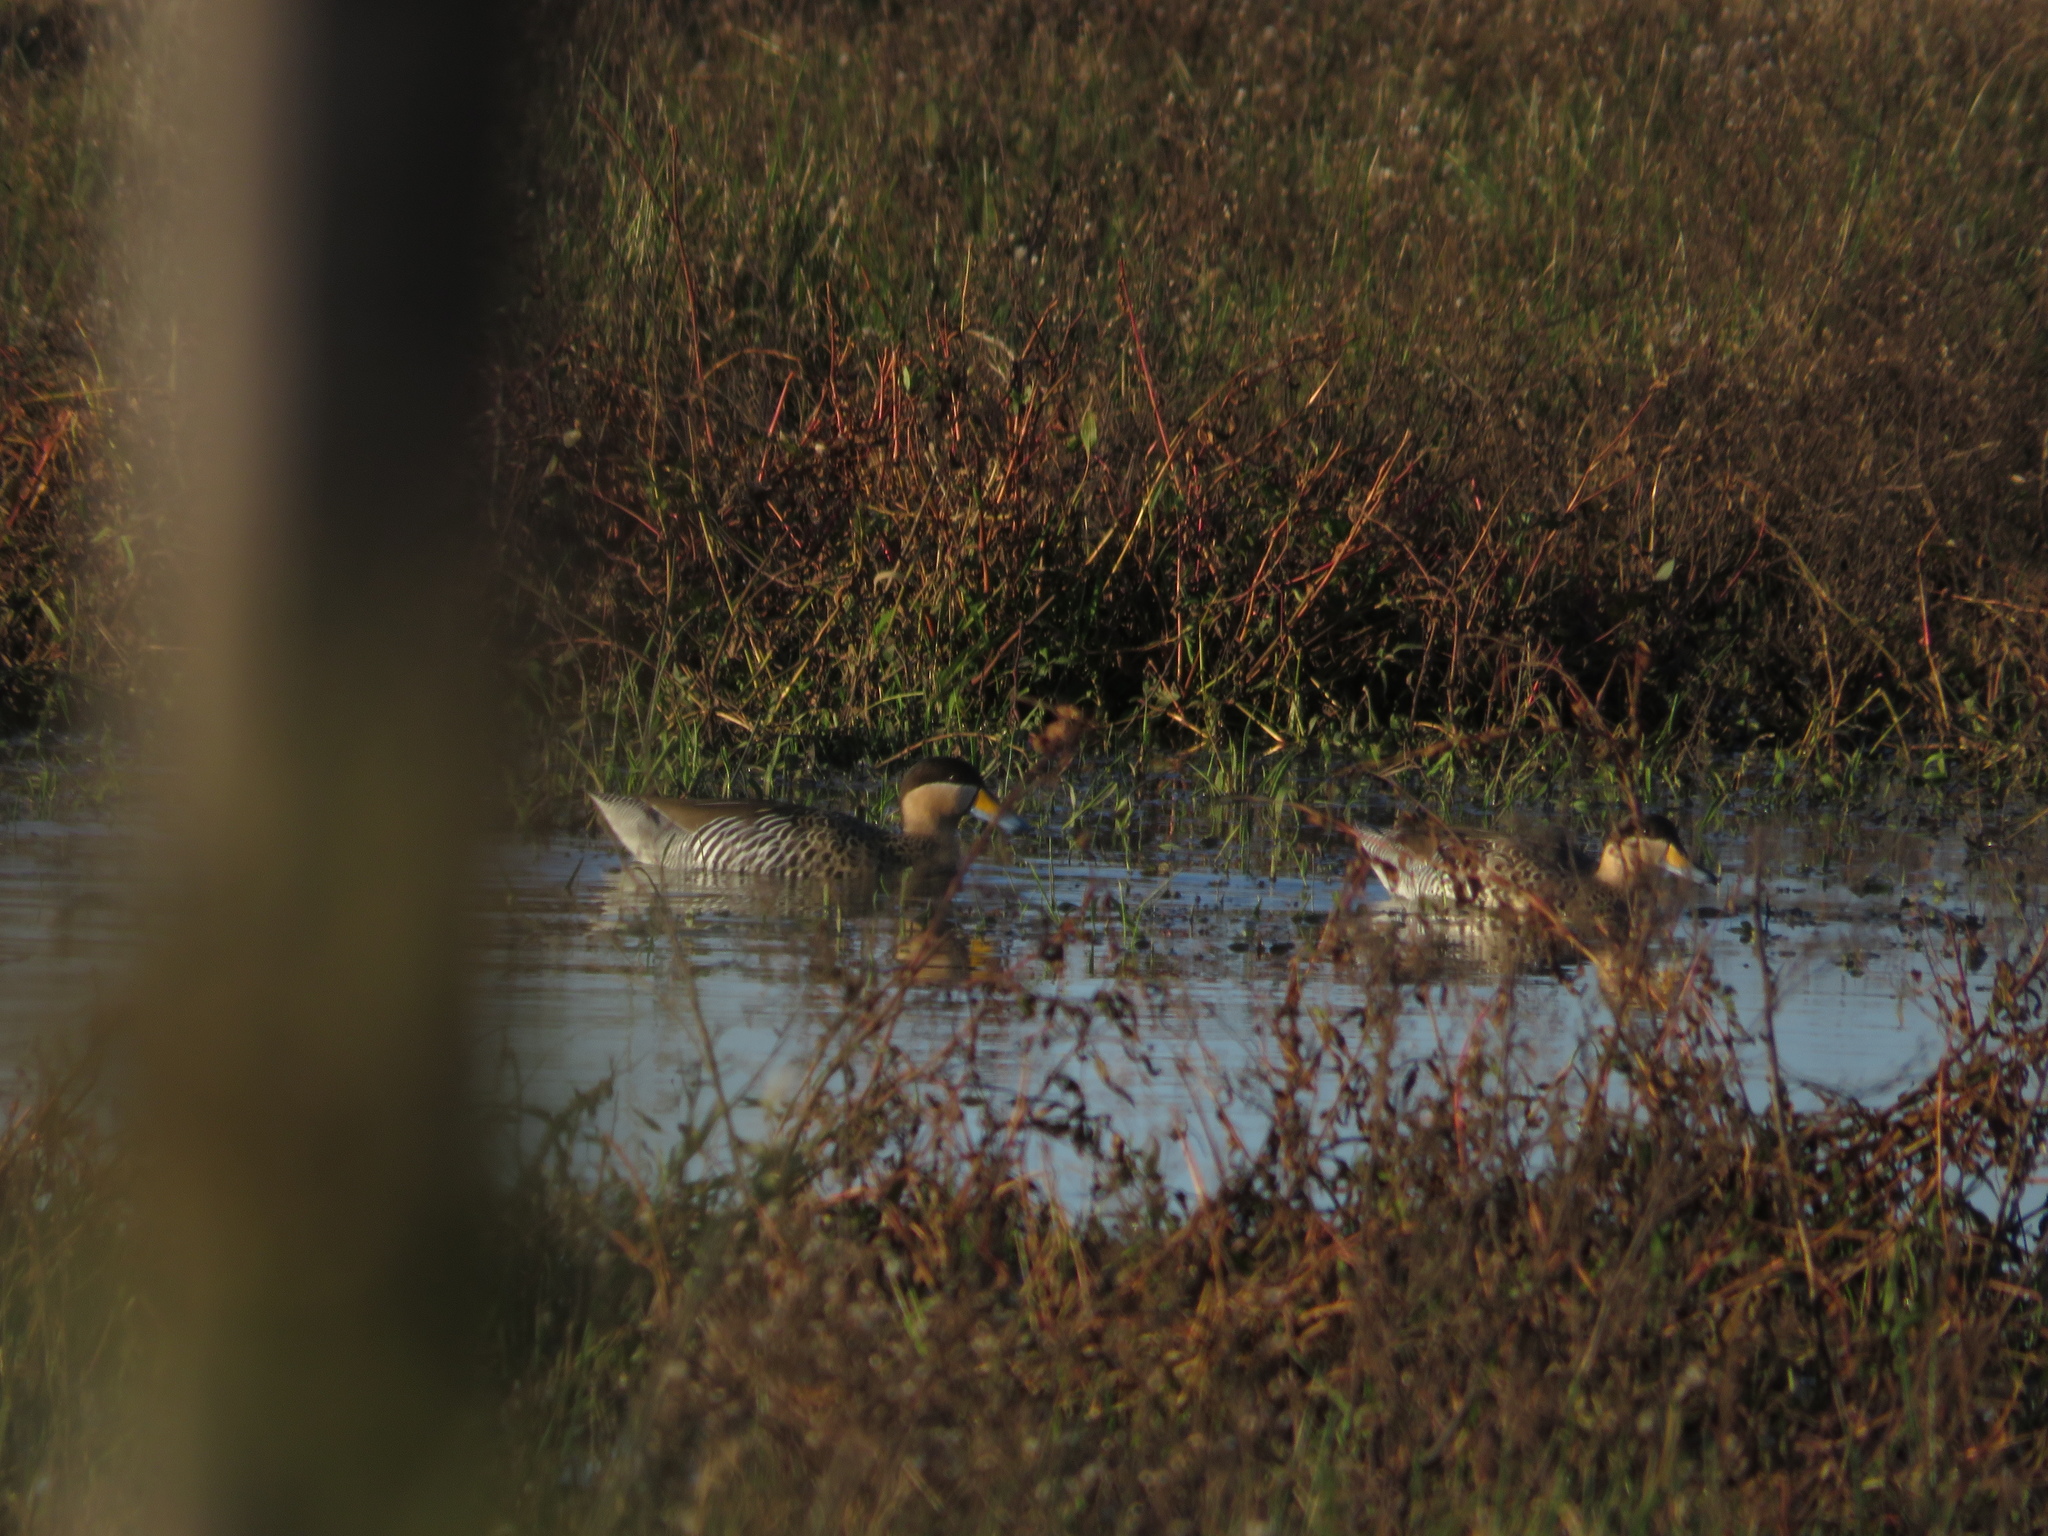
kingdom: Animalia
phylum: Chordata
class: Aves
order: Anseriformes
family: Anatidae
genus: Spatula
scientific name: Spatula versicolor
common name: Silver teal
